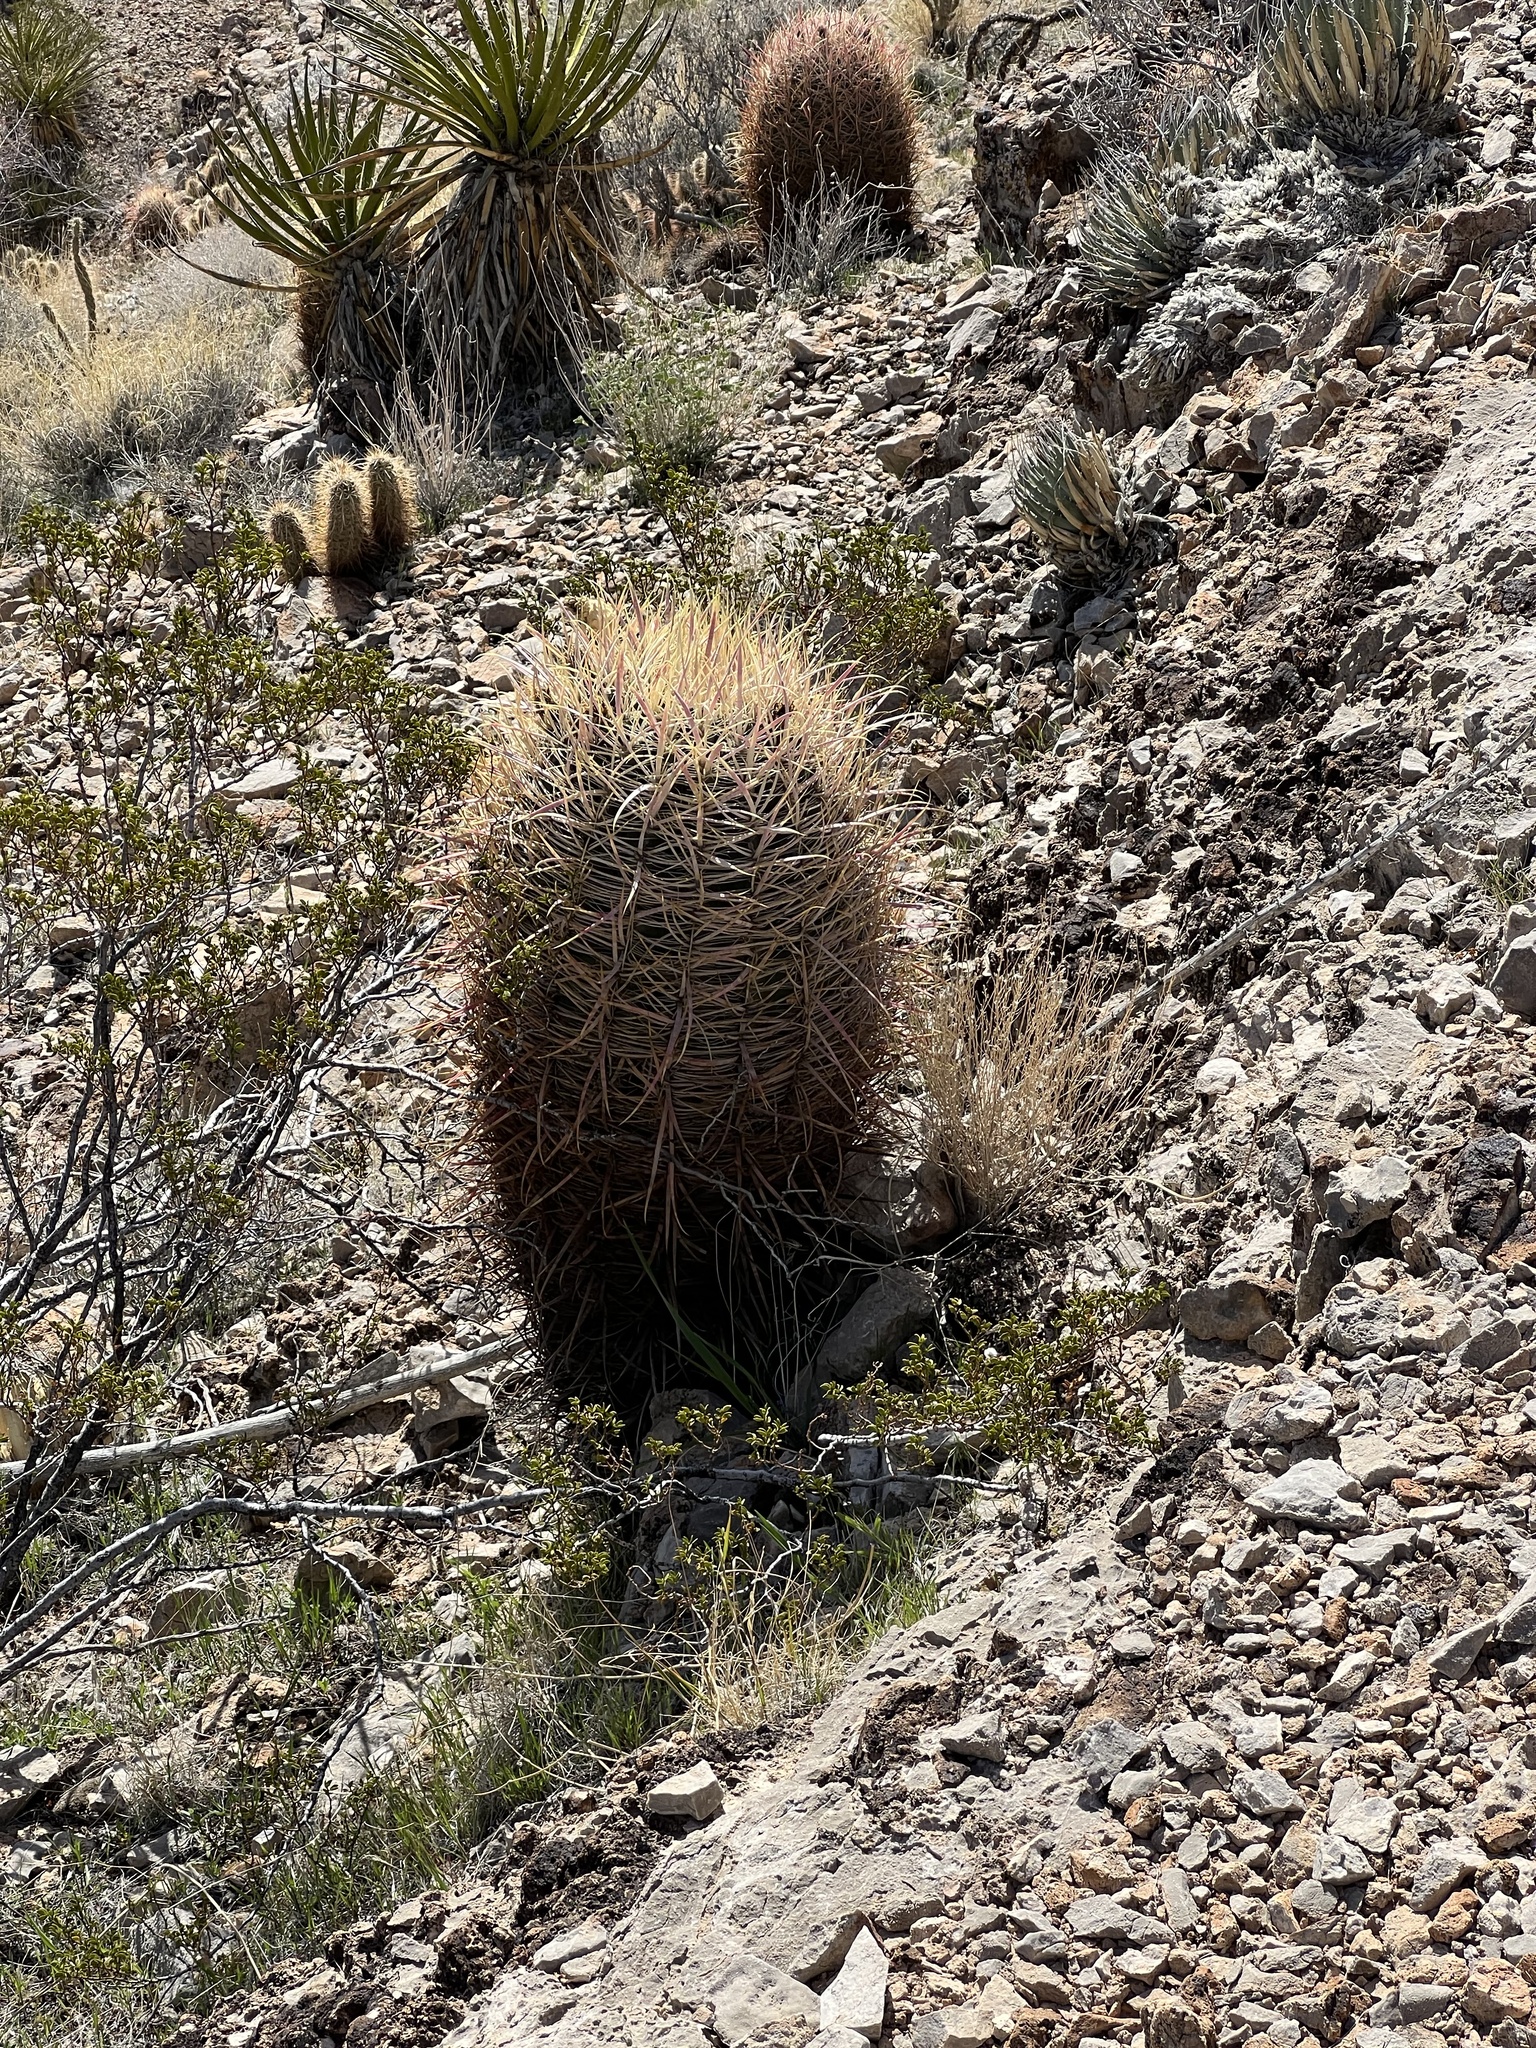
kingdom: Plantae
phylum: Tracheophyta
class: Magnoliopsida
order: Caryophyllales
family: Cactaceae
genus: Ferocactus
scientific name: Ferocactus cylindraceus
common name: California barrel cactus
